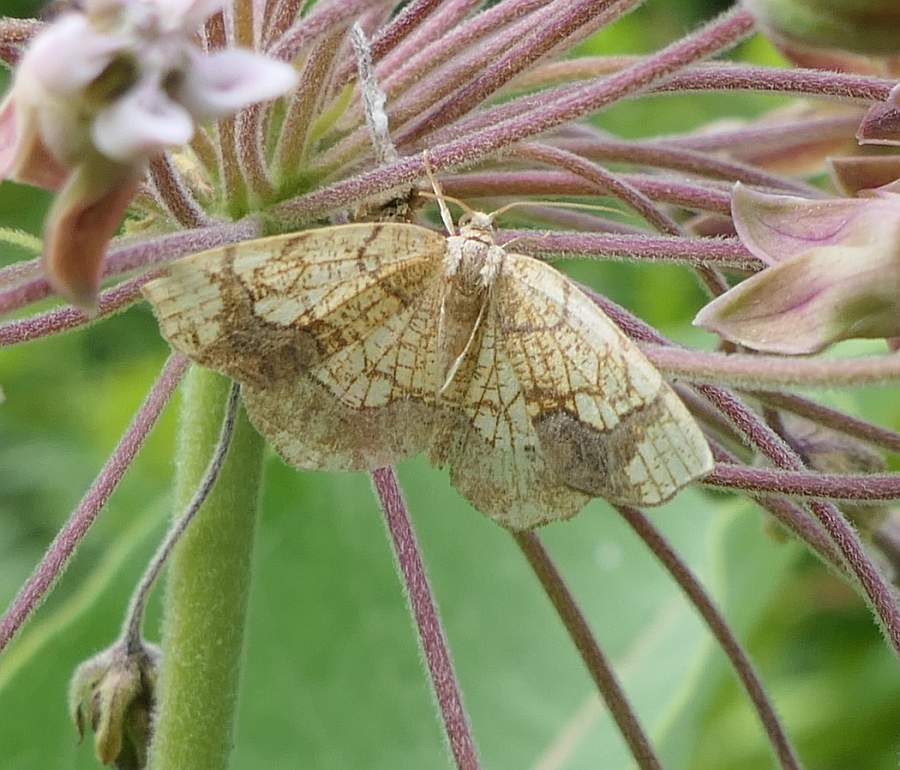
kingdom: Animalia
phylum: Arthropoda
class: Insecta
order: Lepidoptera
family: Geometridae
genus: Nematocampa
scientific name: Nematocampa resistaria
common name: Horned spanworm moth
